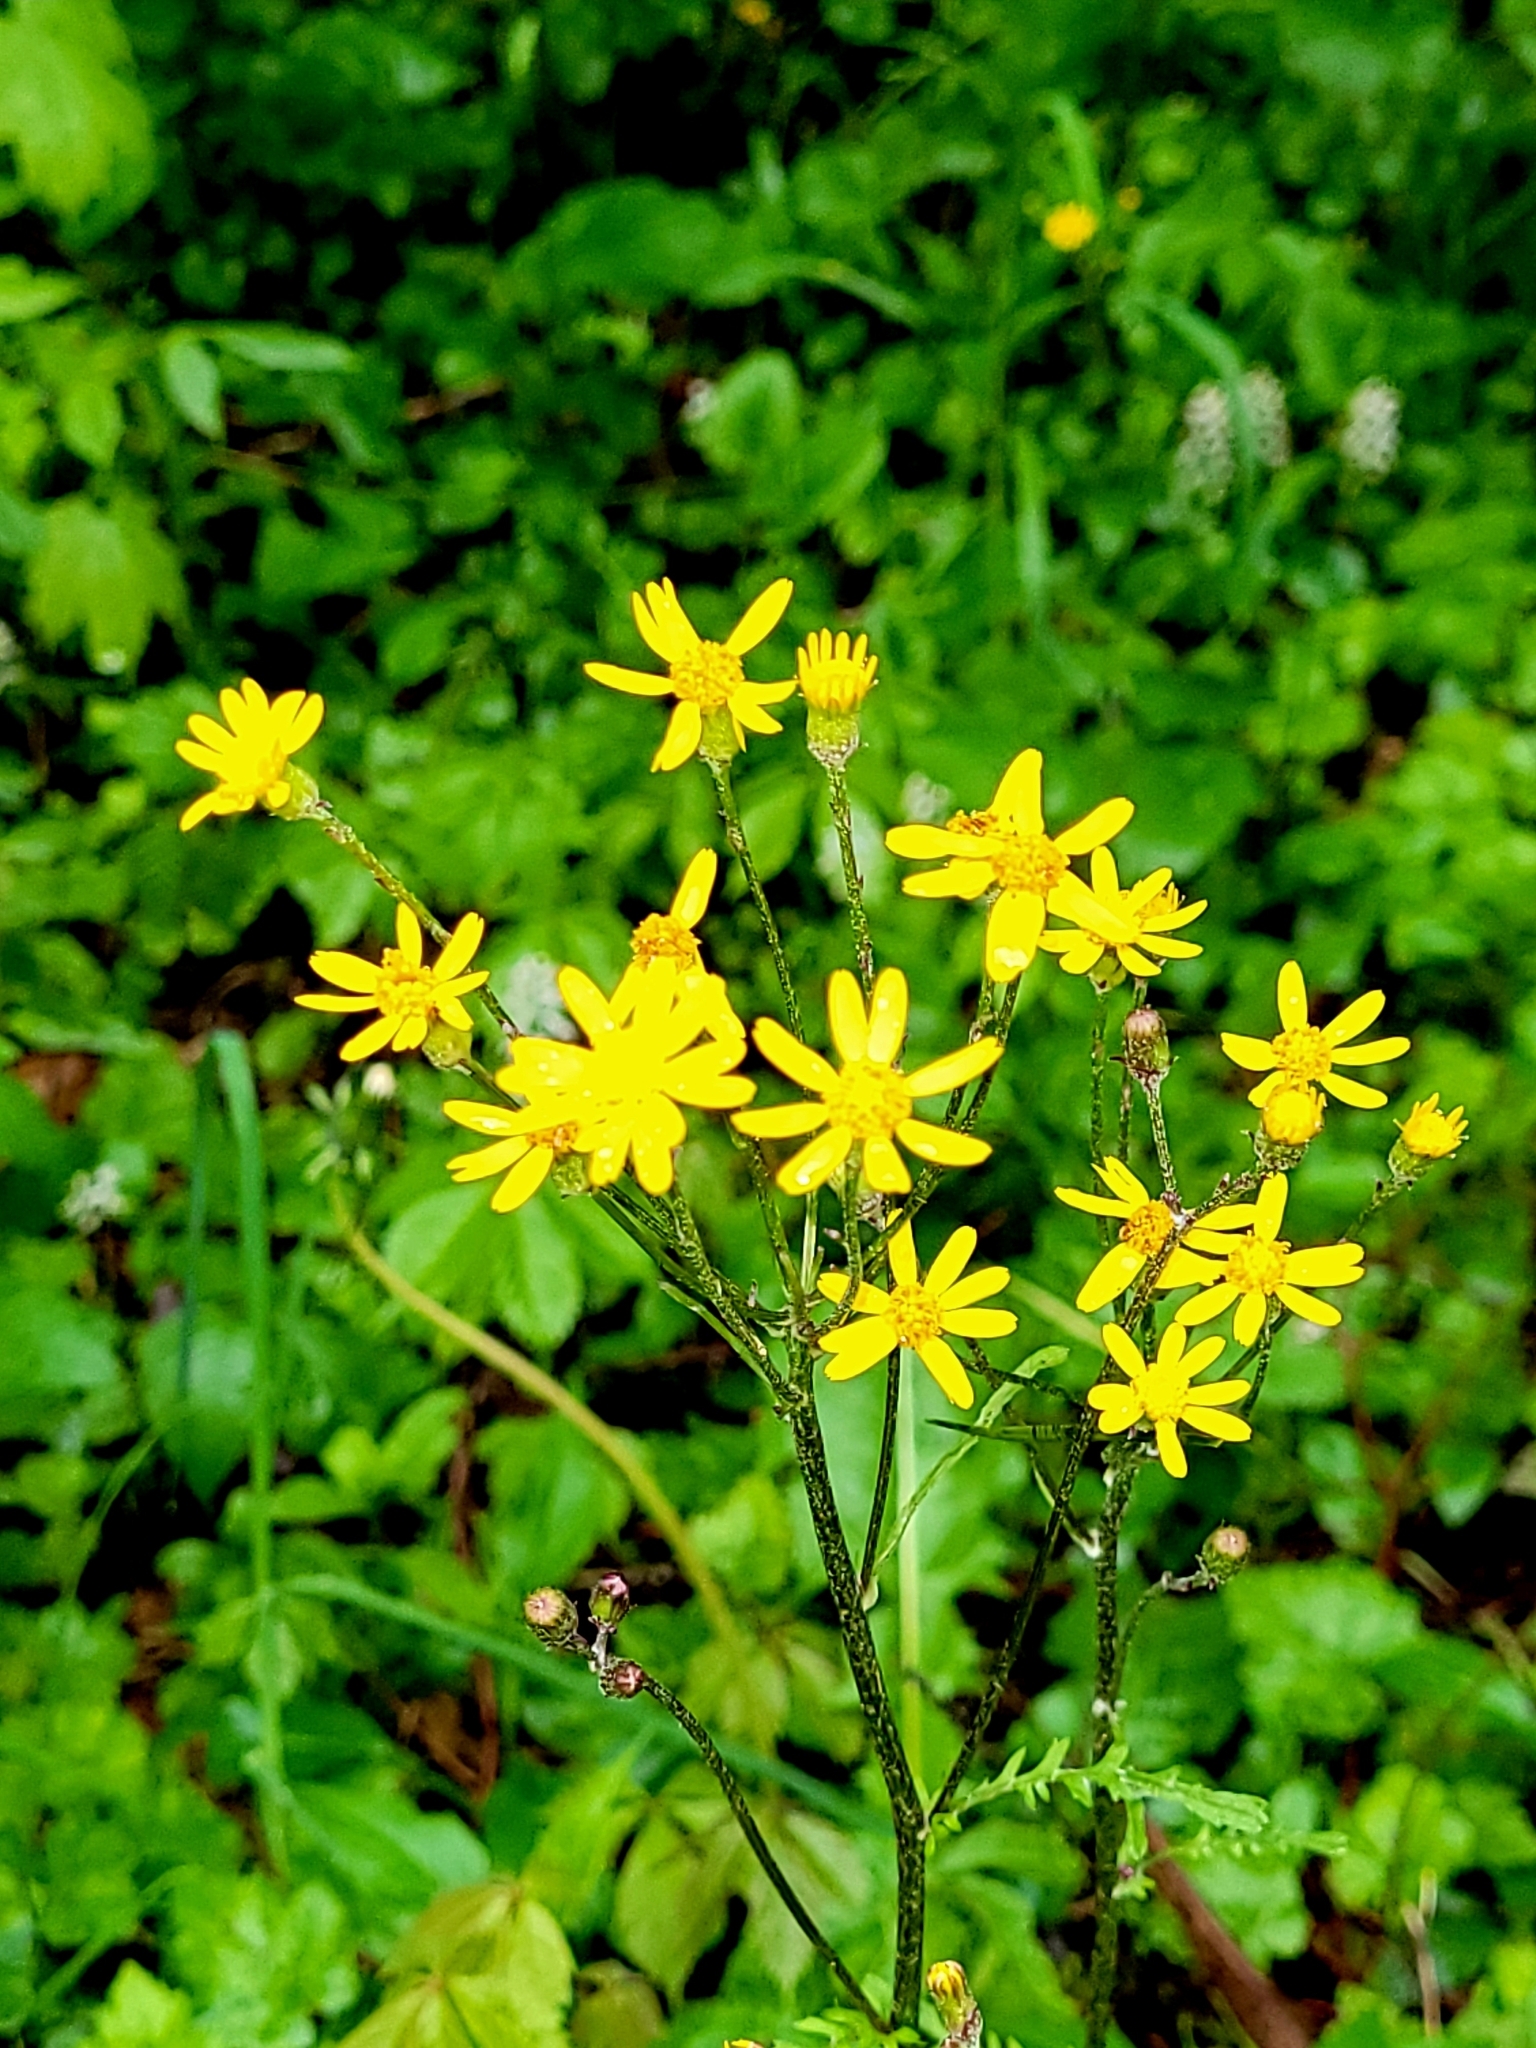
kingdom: Plantae
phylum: Tracheophyta
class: Magnoliopsida
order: Asterales
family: Asteraceae
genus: Packera
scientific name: Packera aurea
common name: Golden groundsel
